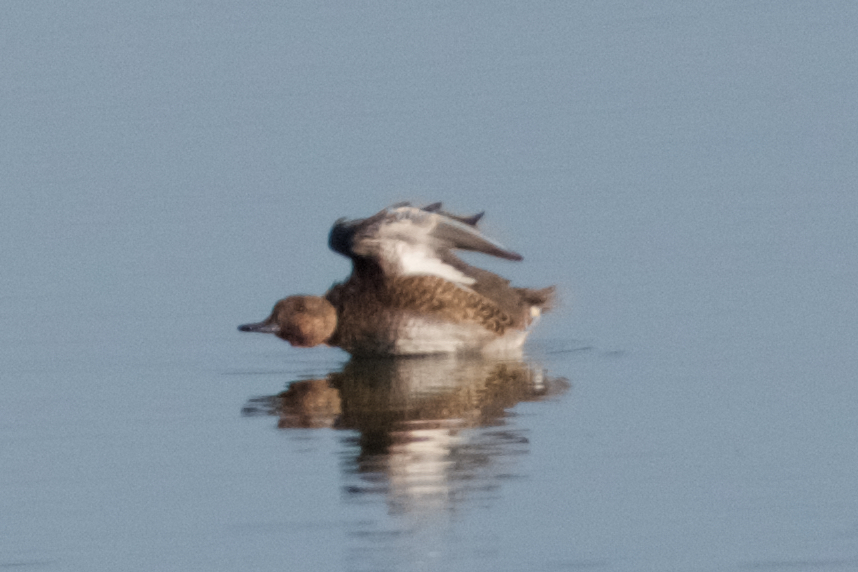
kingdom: Animalia
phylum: Chordata
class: Aves
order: Anseriformes
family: Anatidae
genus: Anas
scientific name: Anas acuta
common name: Northern pintail
